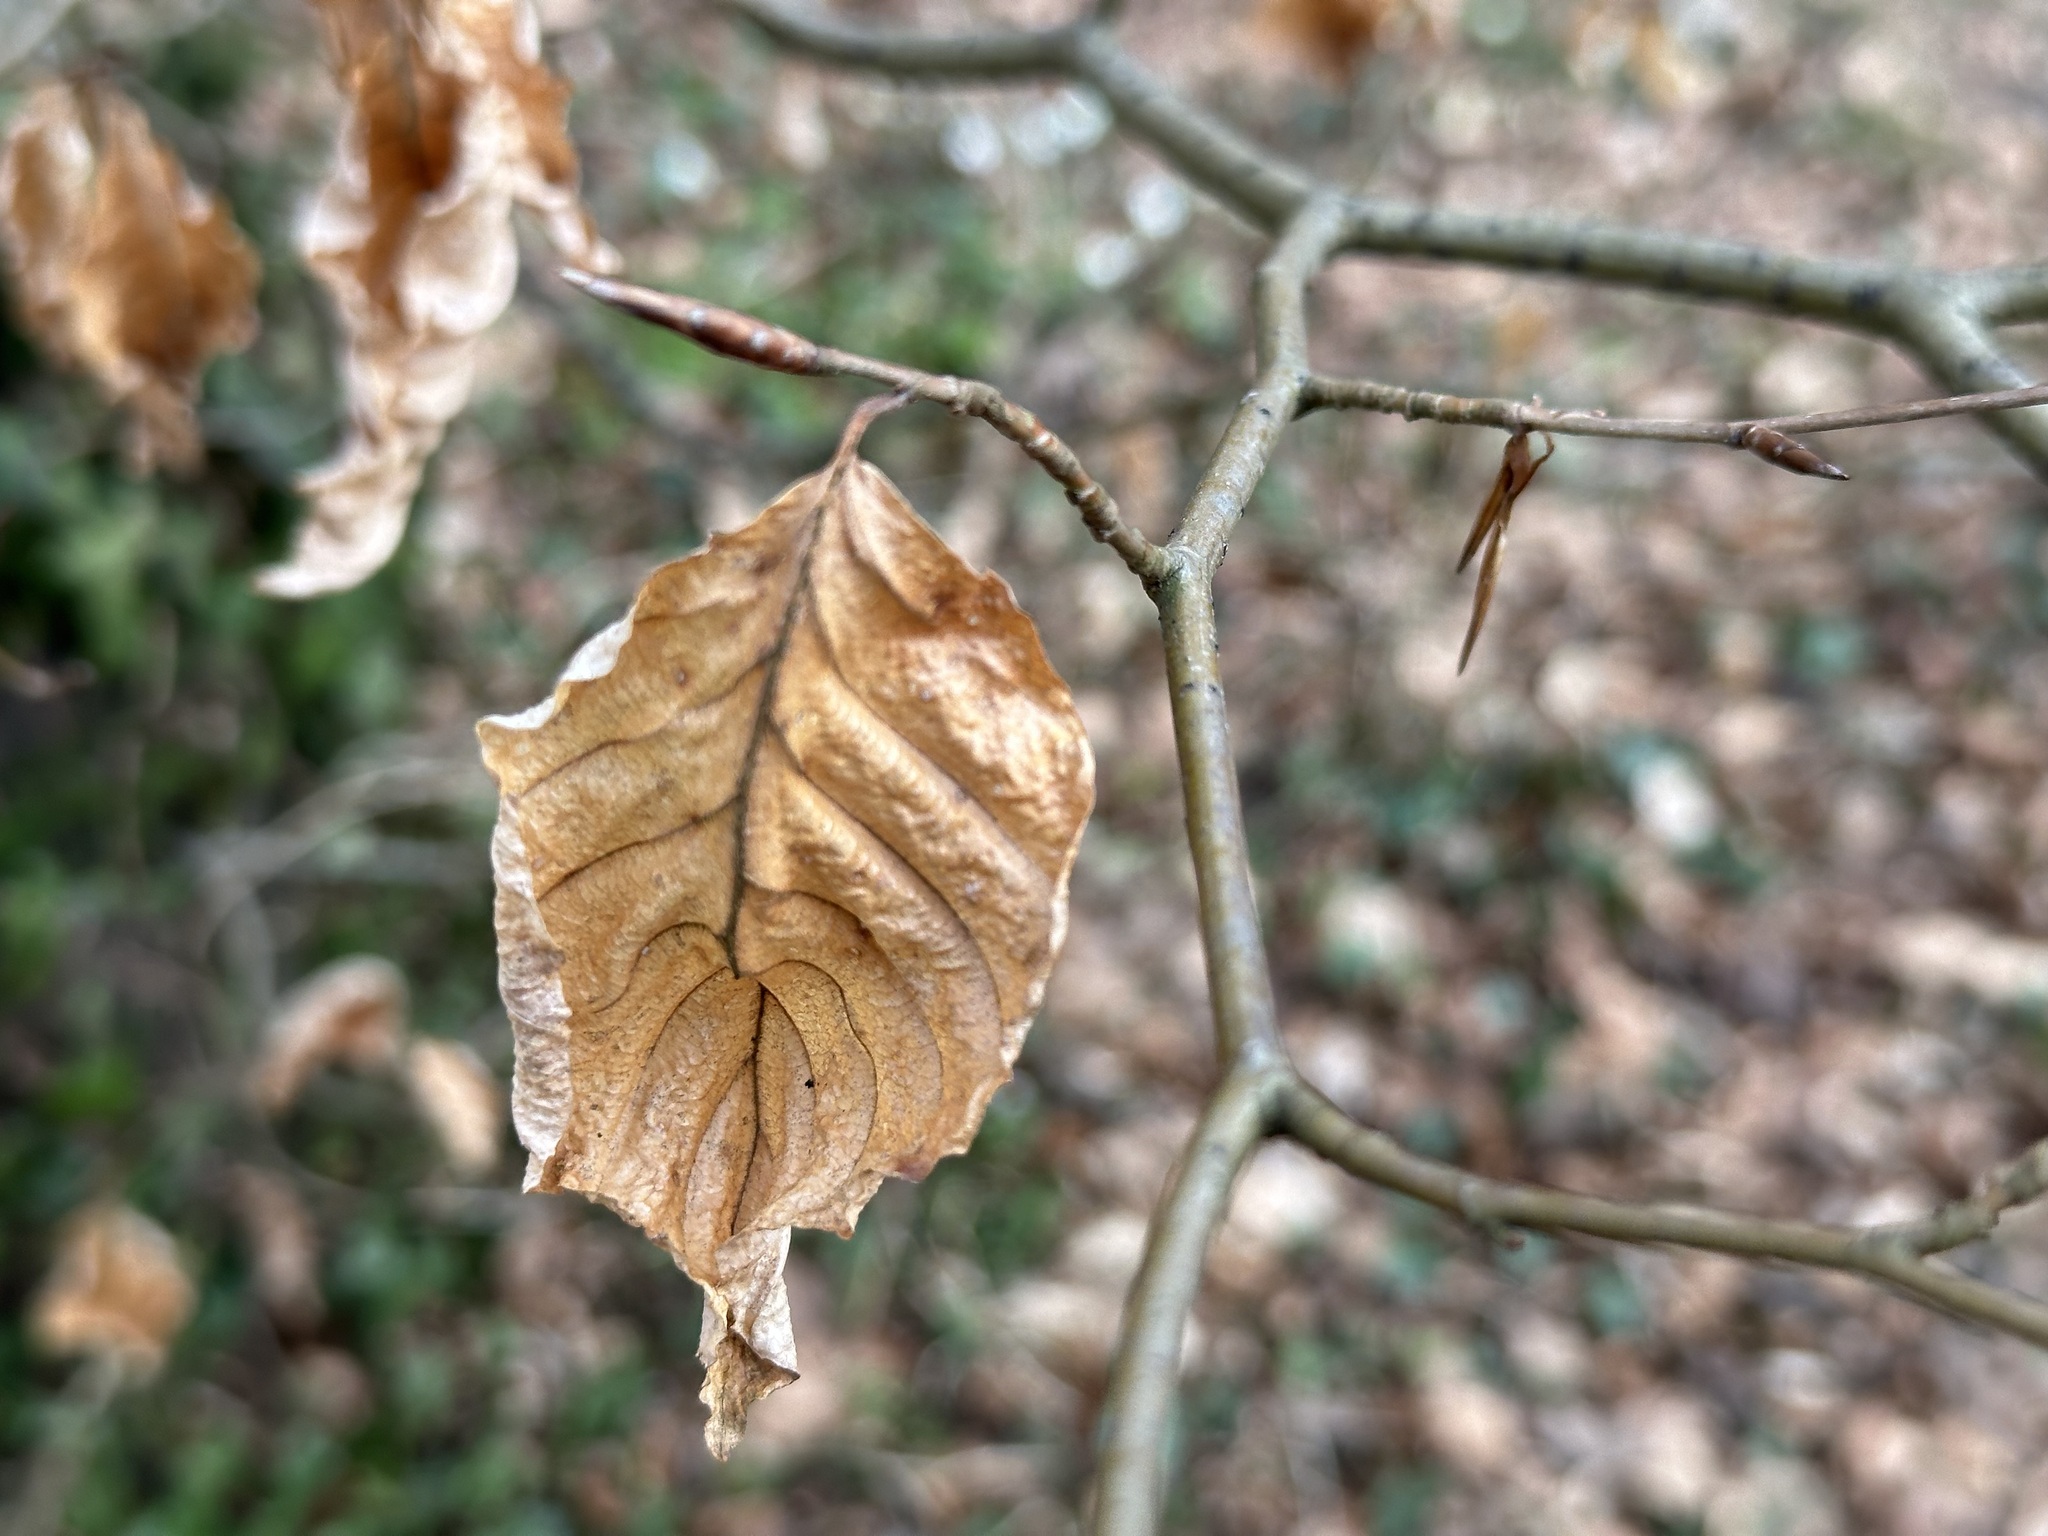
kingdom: Plantae
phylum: Tracheophyta
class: Magnoliopsida
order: Fagales
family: Fagaceae
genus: Fagus
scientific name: Fagus sylvatica
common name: Beech
